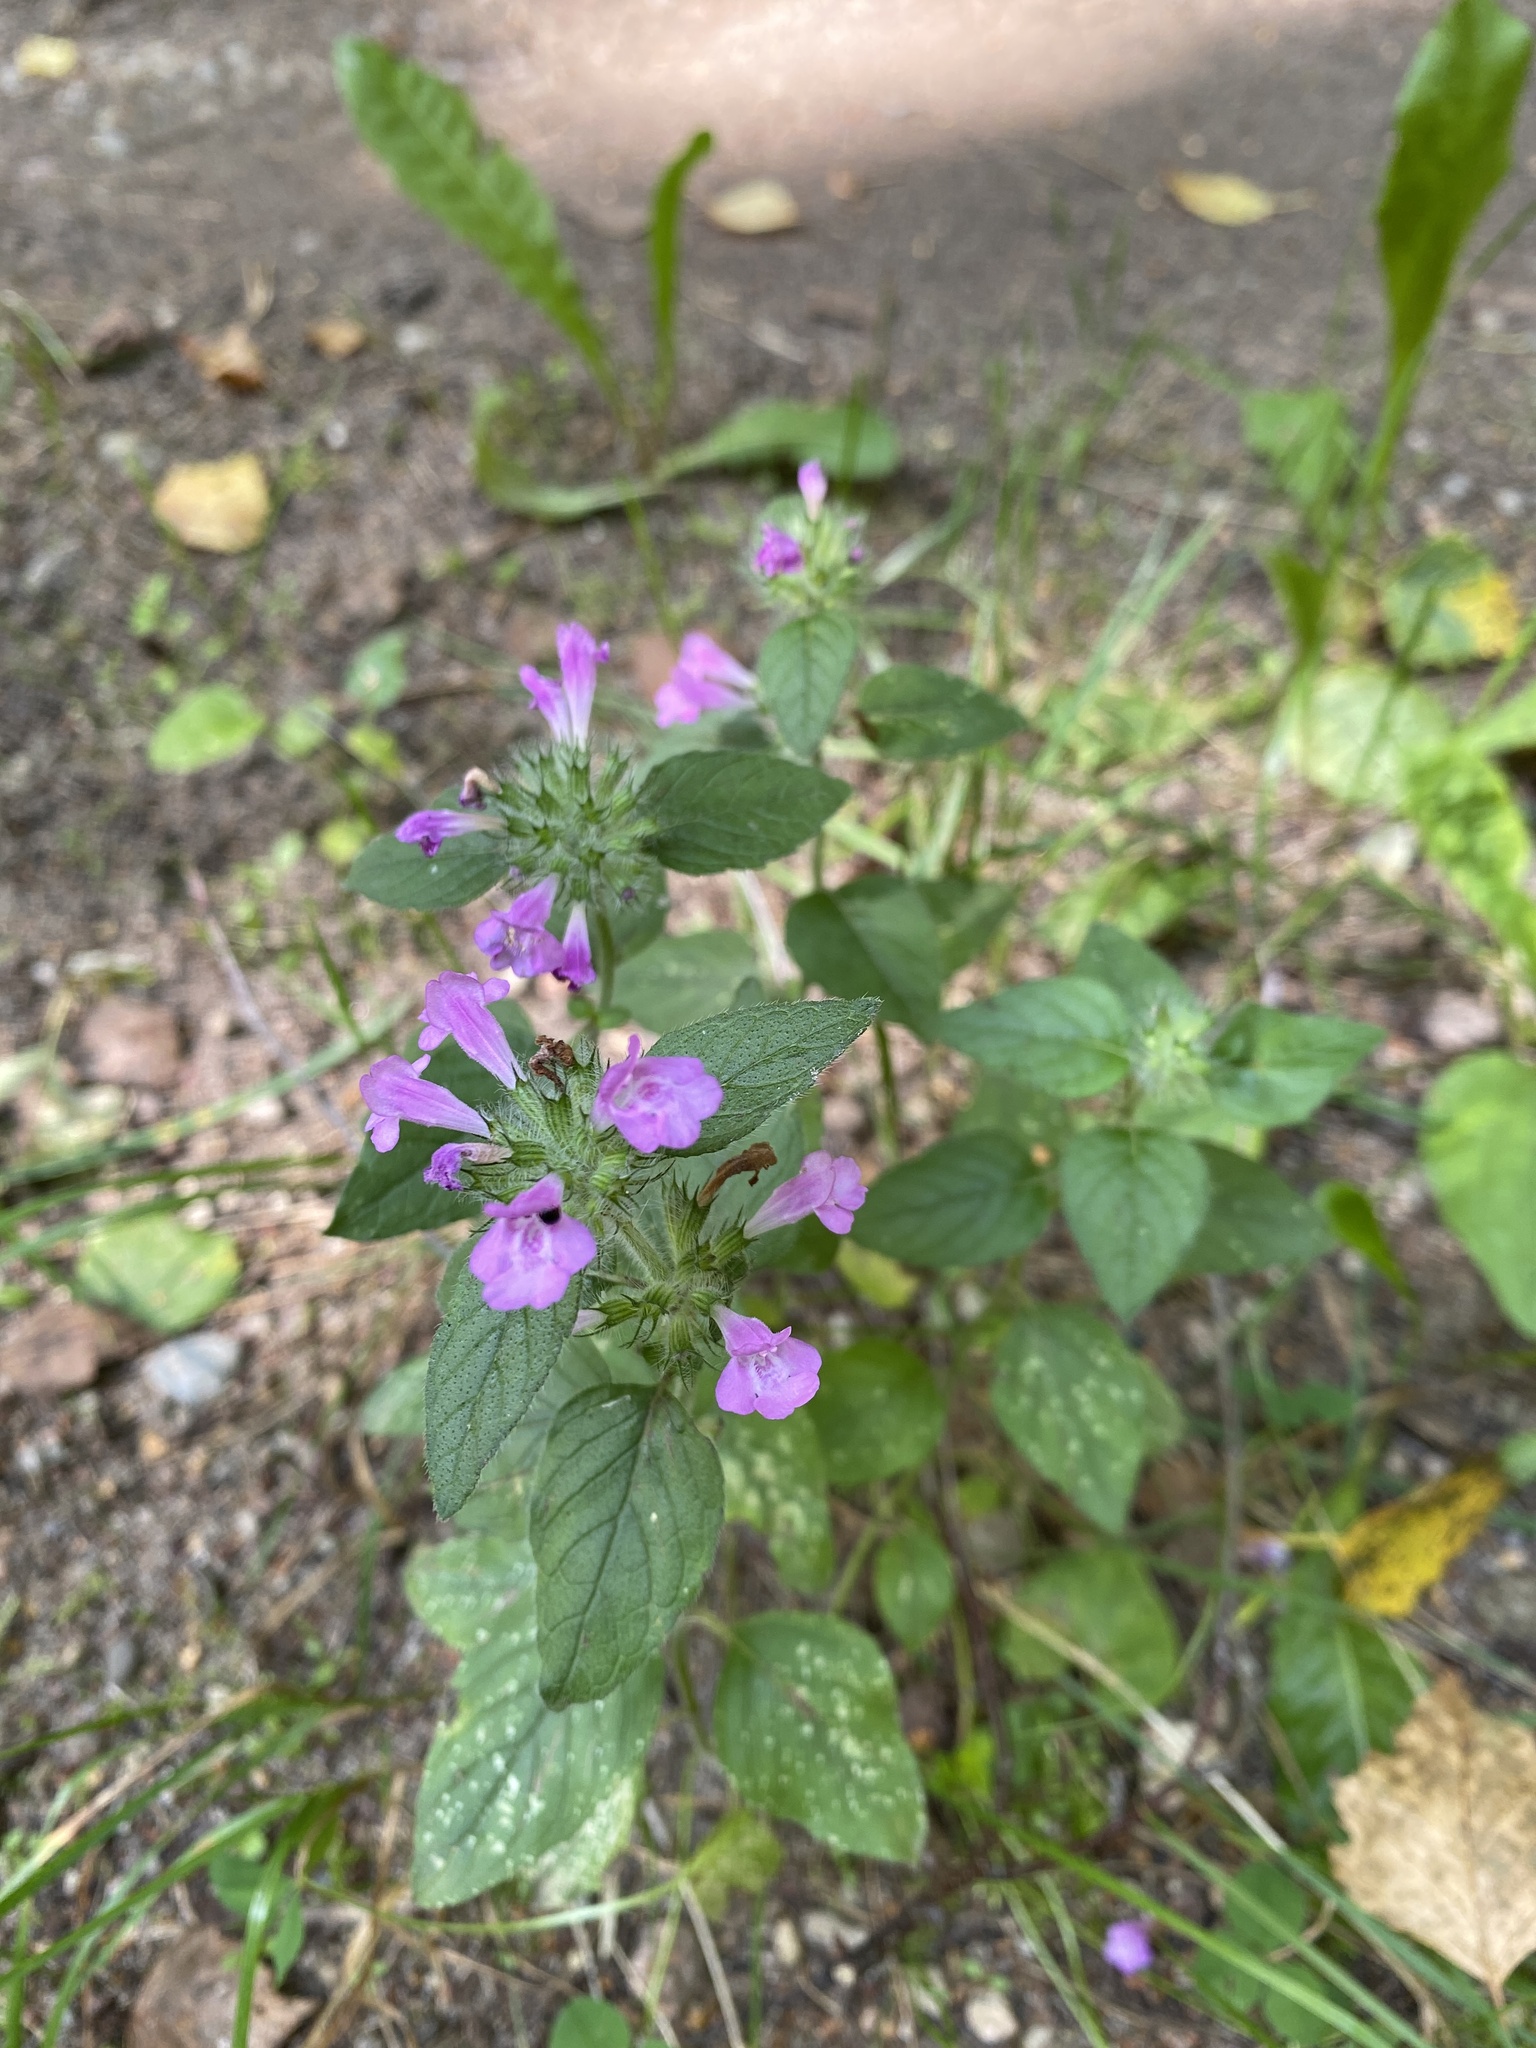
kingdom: Plantae
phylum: Tracheophyta
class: Magnoliopsida
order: Lamiales
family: Lamiaceae
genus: Clinopodium
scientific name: Clinopodium vulgare
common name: Wild basil
